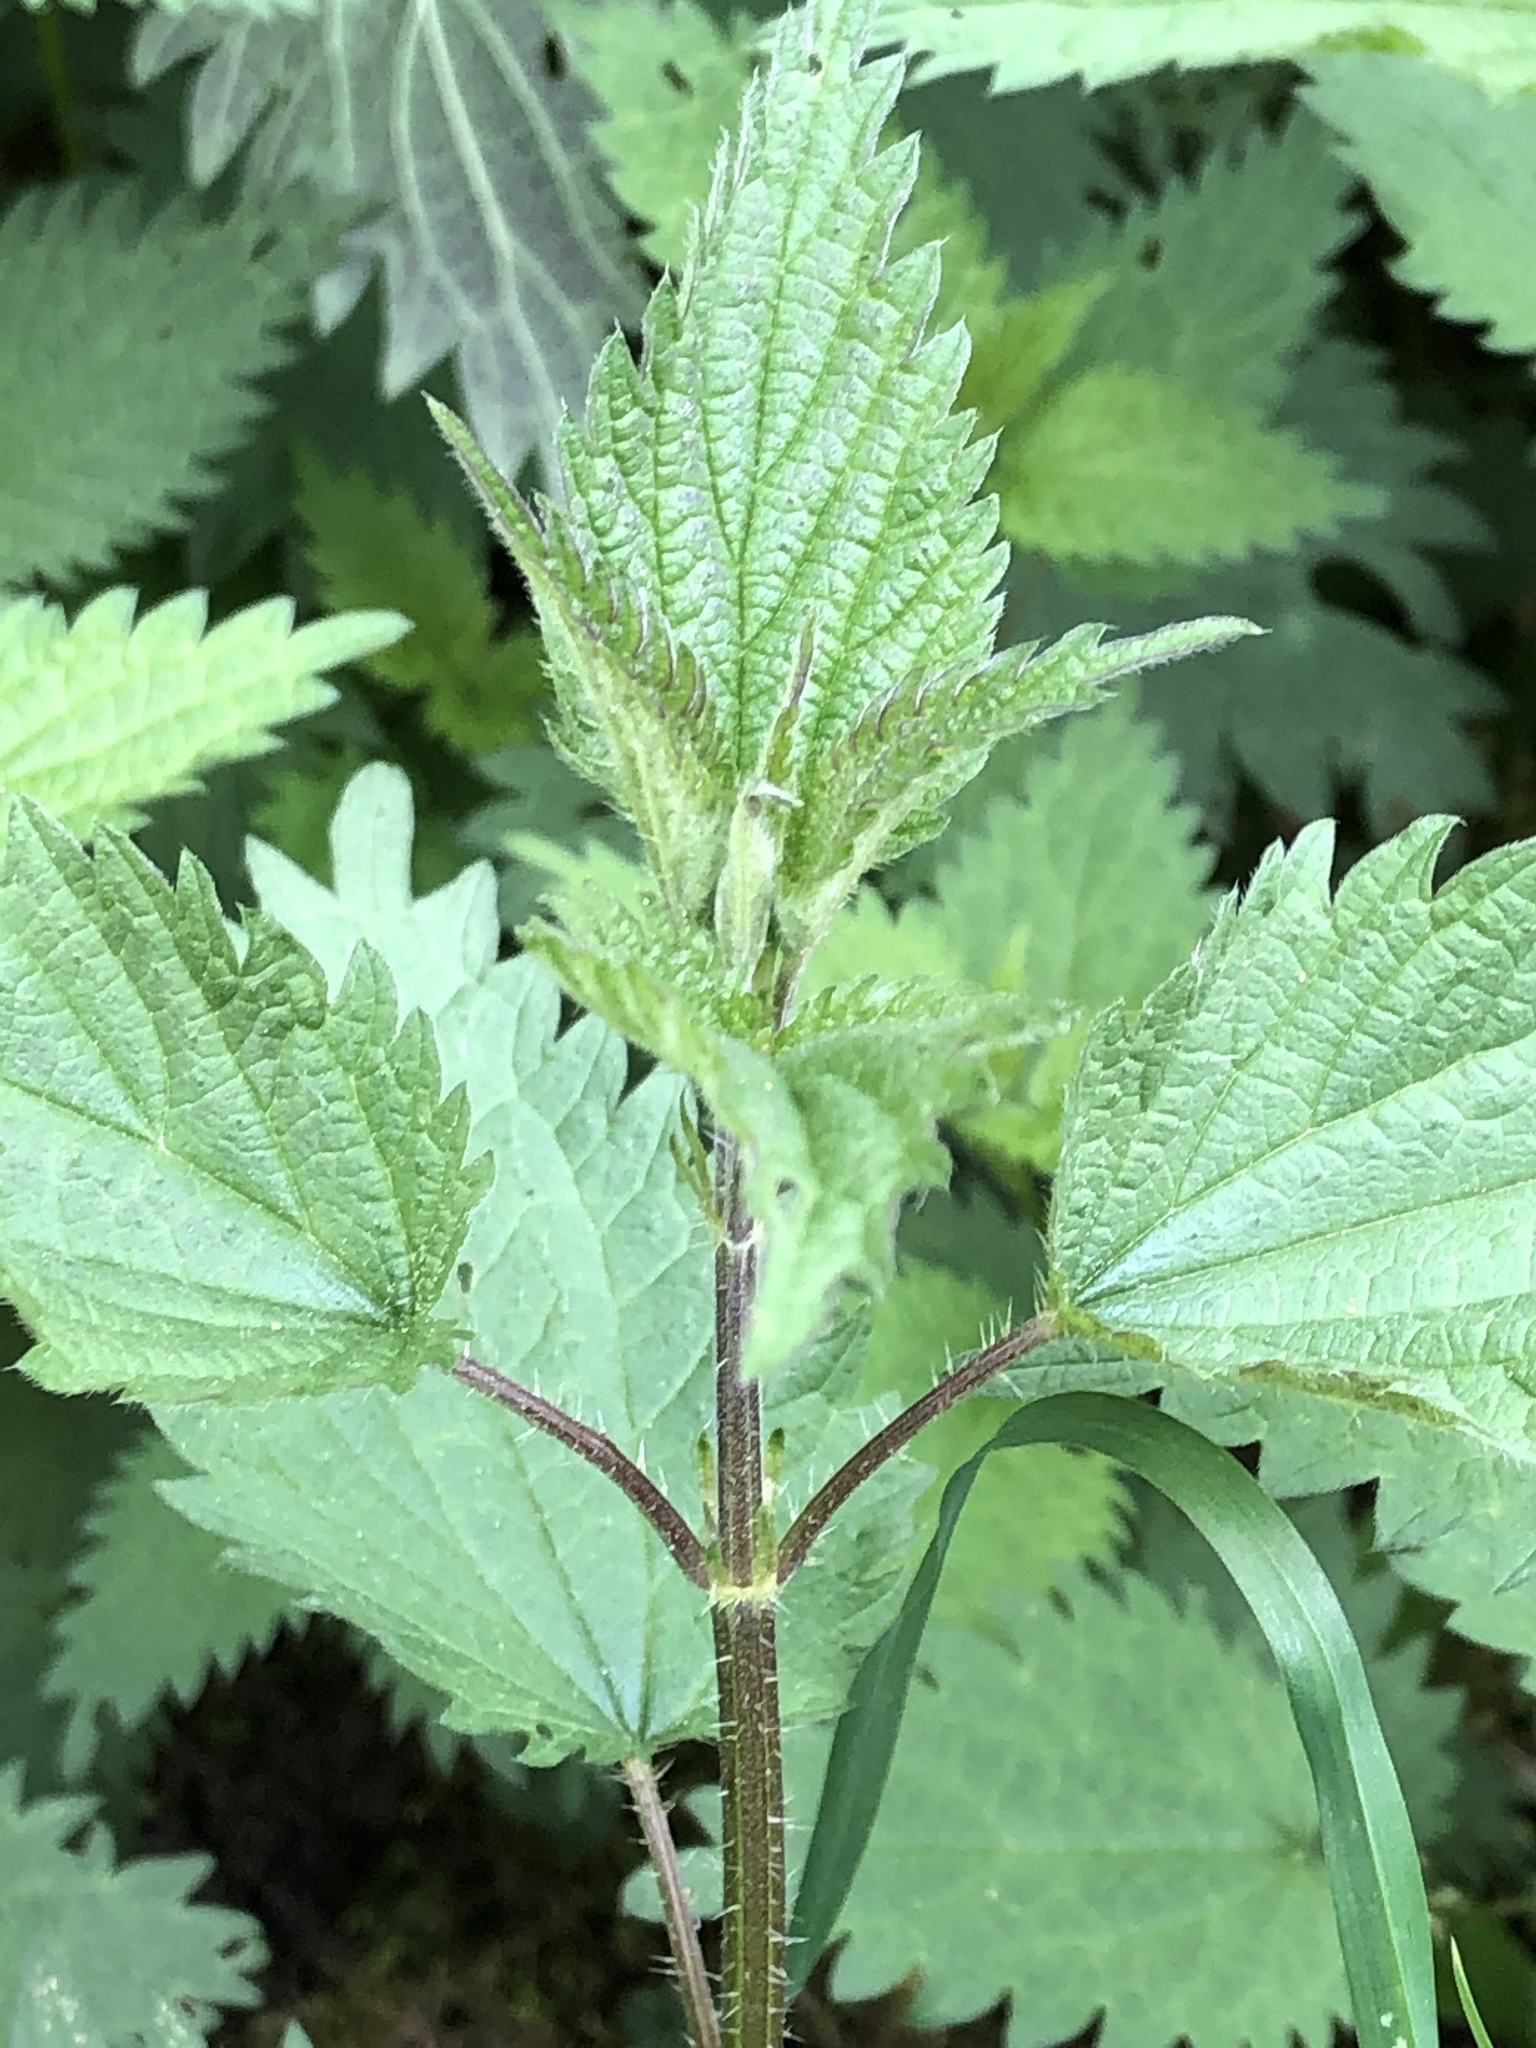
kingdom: Plantae
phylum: Tracheophyta
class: Magnoliopsida
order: Rosales
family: Urticaceae
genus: Urtica
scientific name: Urtica dioica
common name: Common nettle
